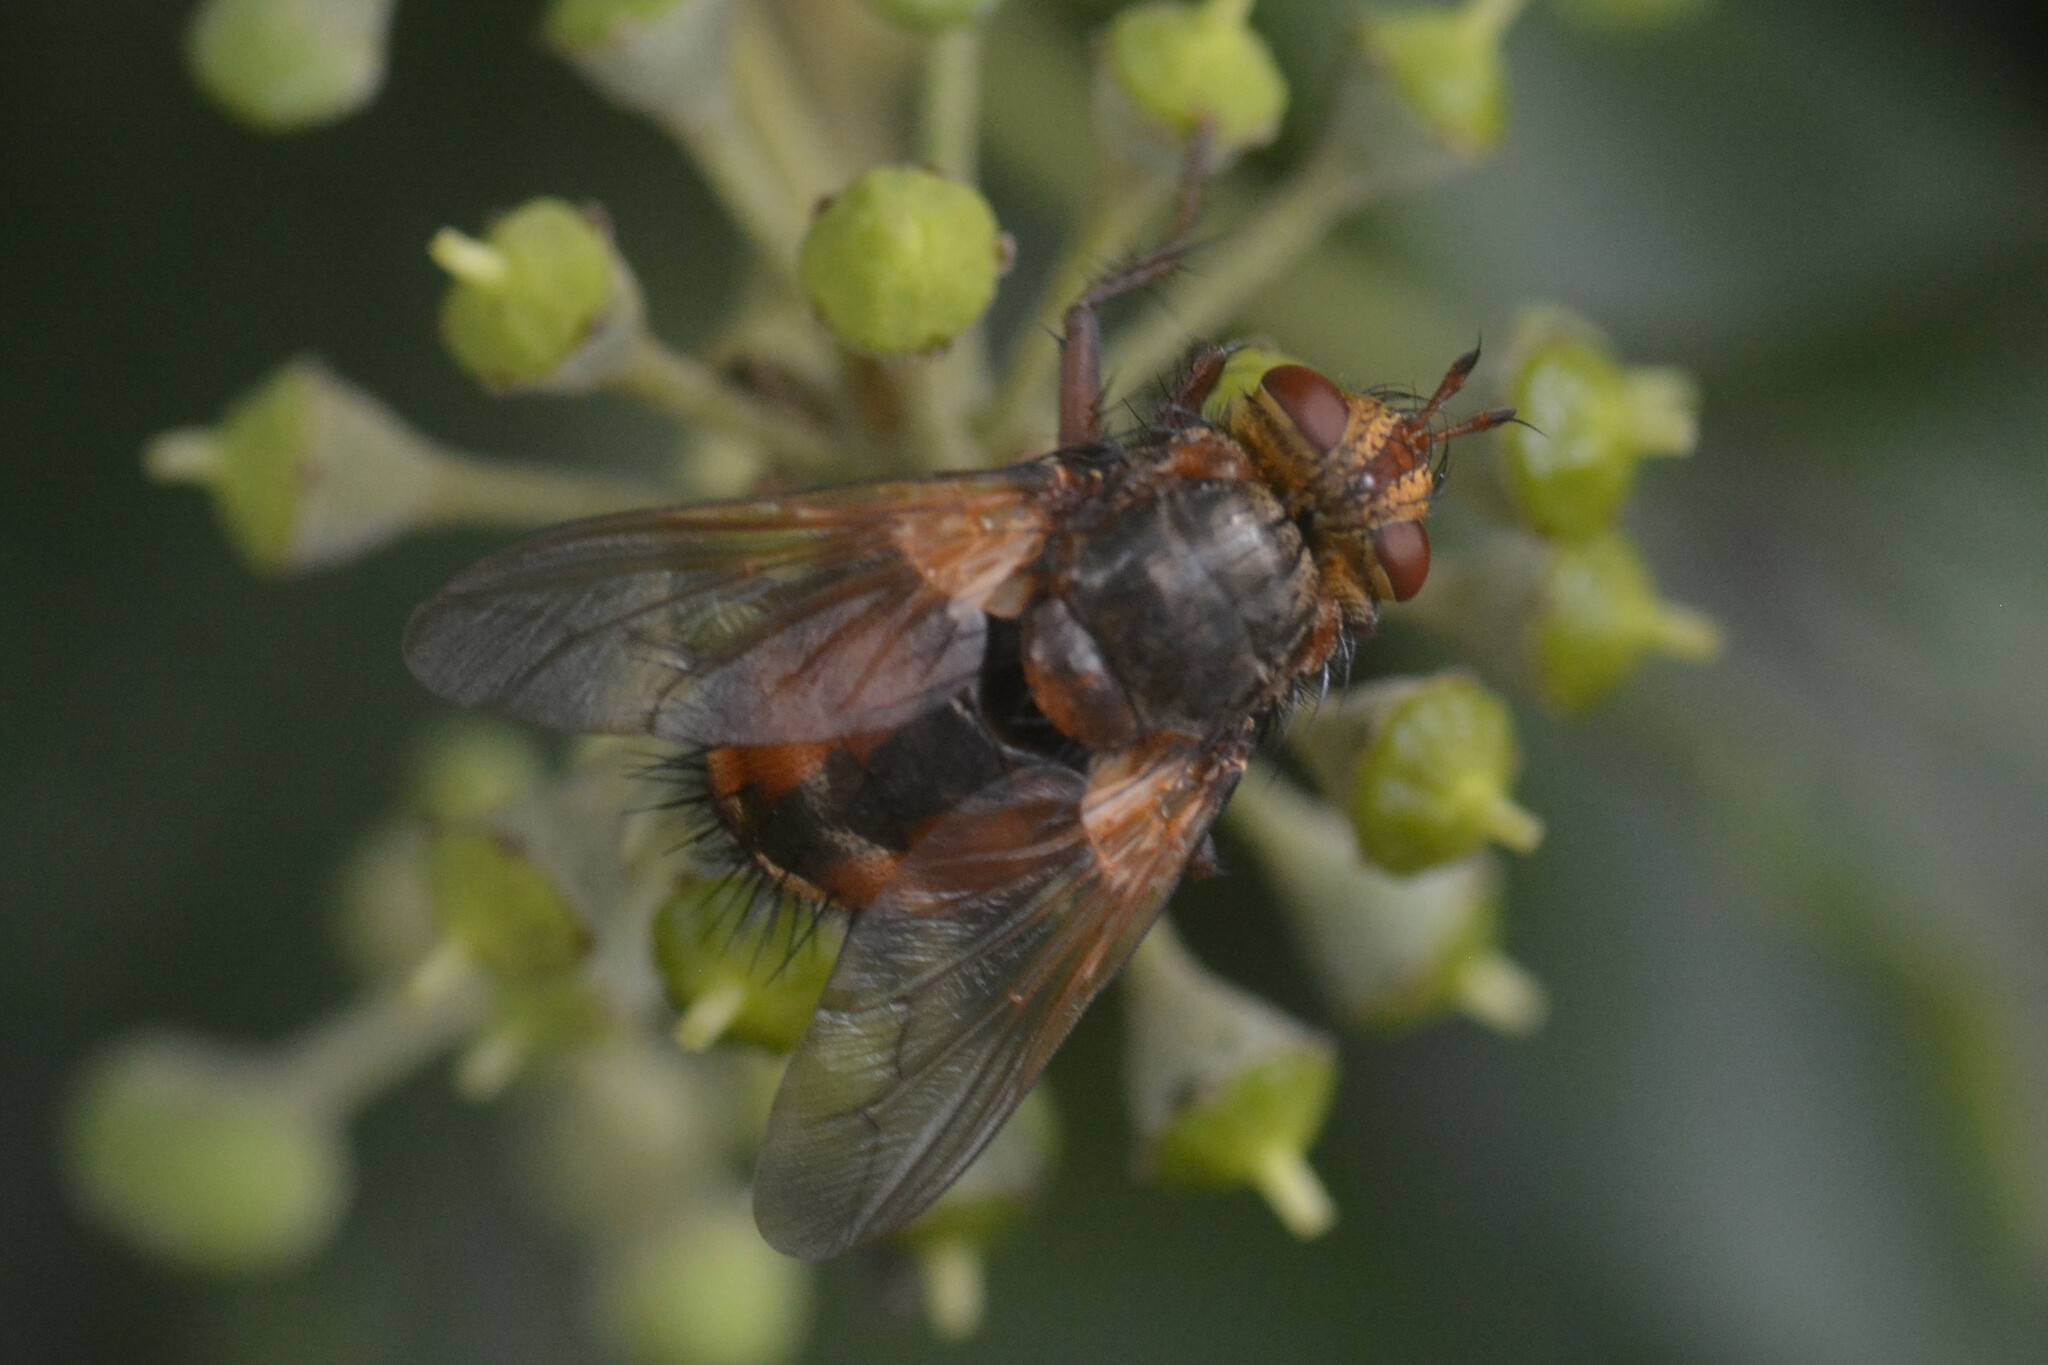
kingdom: Animalia
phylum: Arthropoda
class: Insecta
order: Diptera
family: Tachinidae
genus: Tachina
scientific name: Tachina fera
